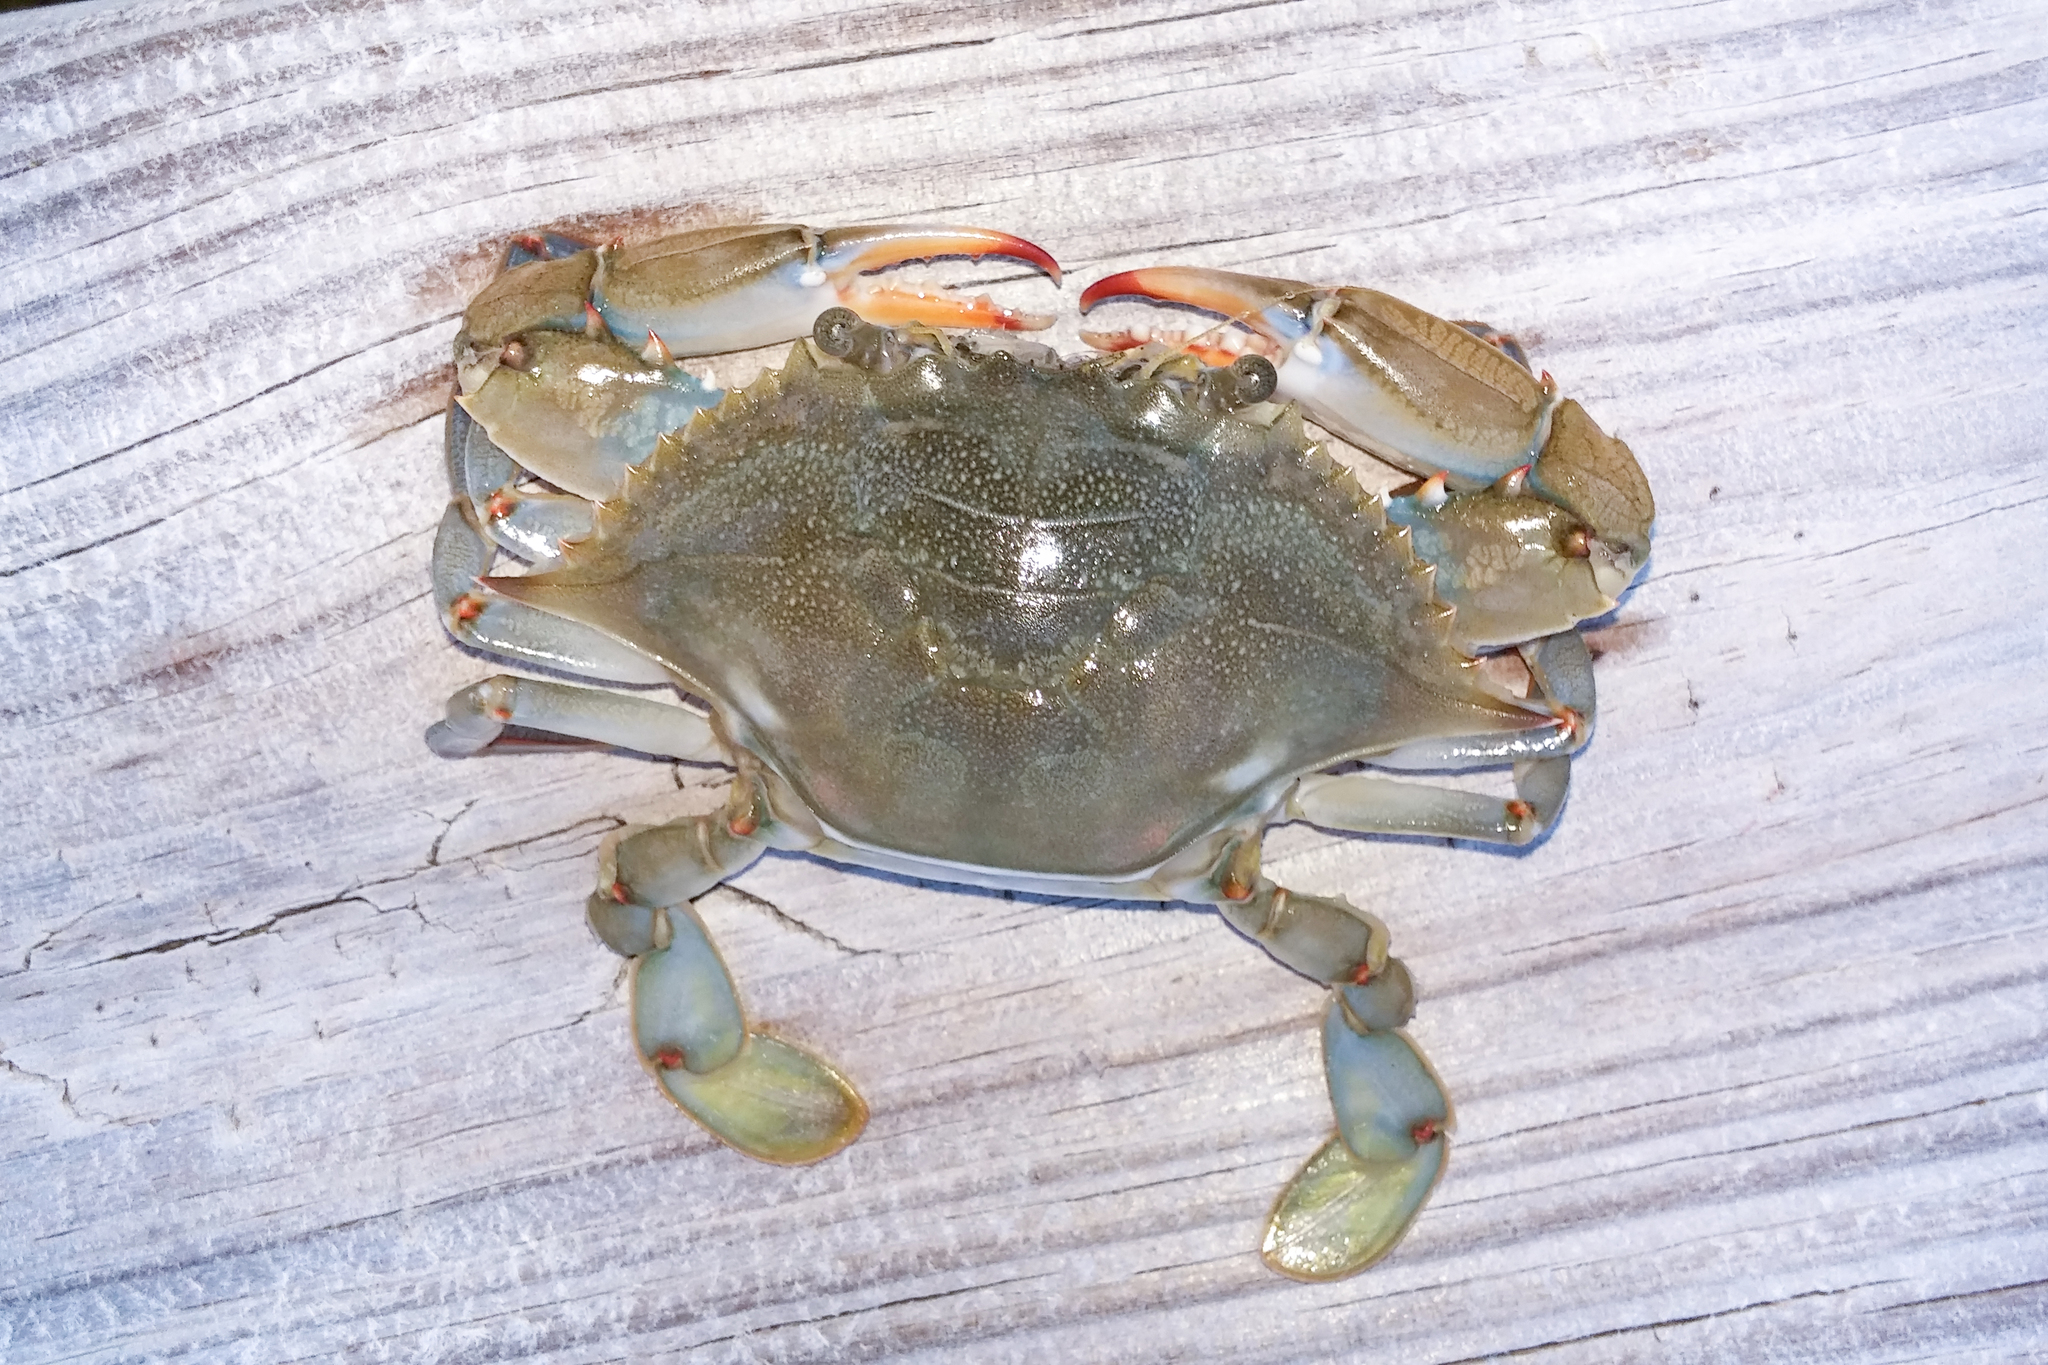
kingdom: Animalia
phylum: Arthropoda
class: Malacostraca
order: Decapoda
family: Portunidae
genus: Callinectes
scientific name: Callinectes sapidus
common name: Blue crab
